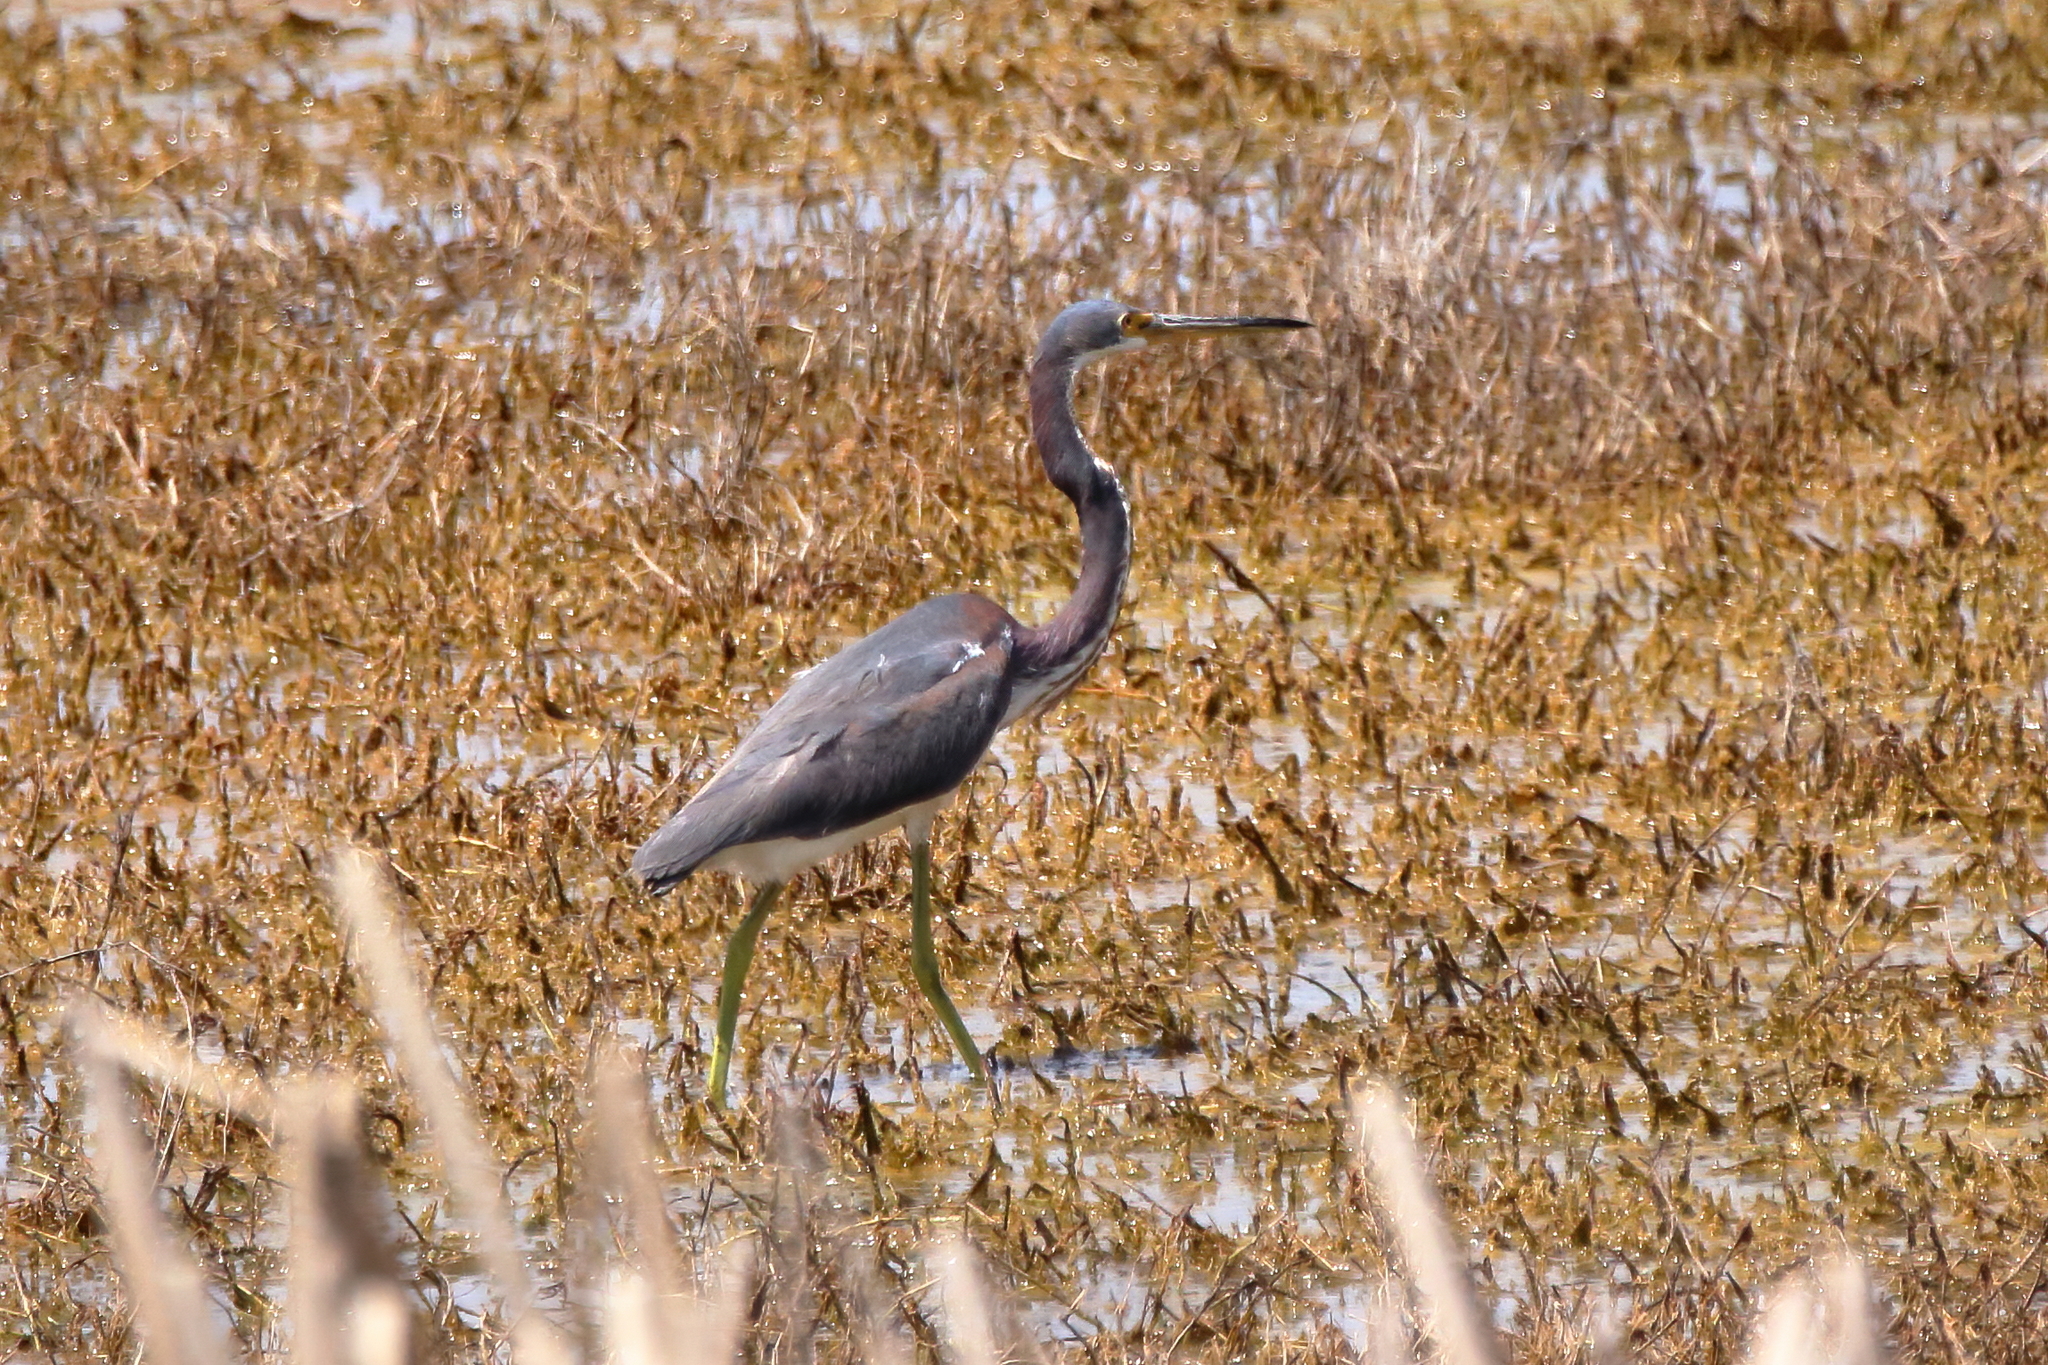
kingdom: Animalia
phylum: Chordata
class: Aves
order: Pelecaniformes
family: Ardeidae
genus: Egretta
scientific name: Egretta tricolor
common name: Tricolored heron
